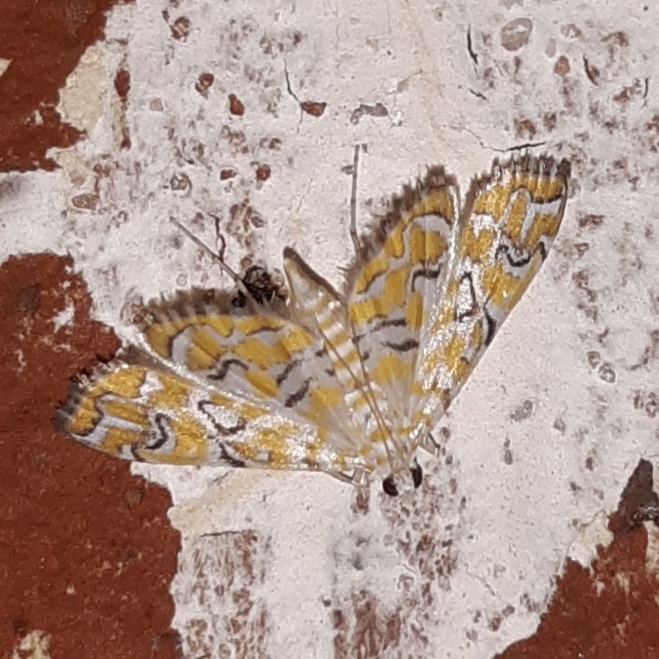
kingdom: Animalia
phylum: Arthropoda
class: Insecta
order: Lepidoptera
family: Crambidae
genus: Elophila
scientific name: Elophila icciusalis
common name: Pondside pyralid moth
